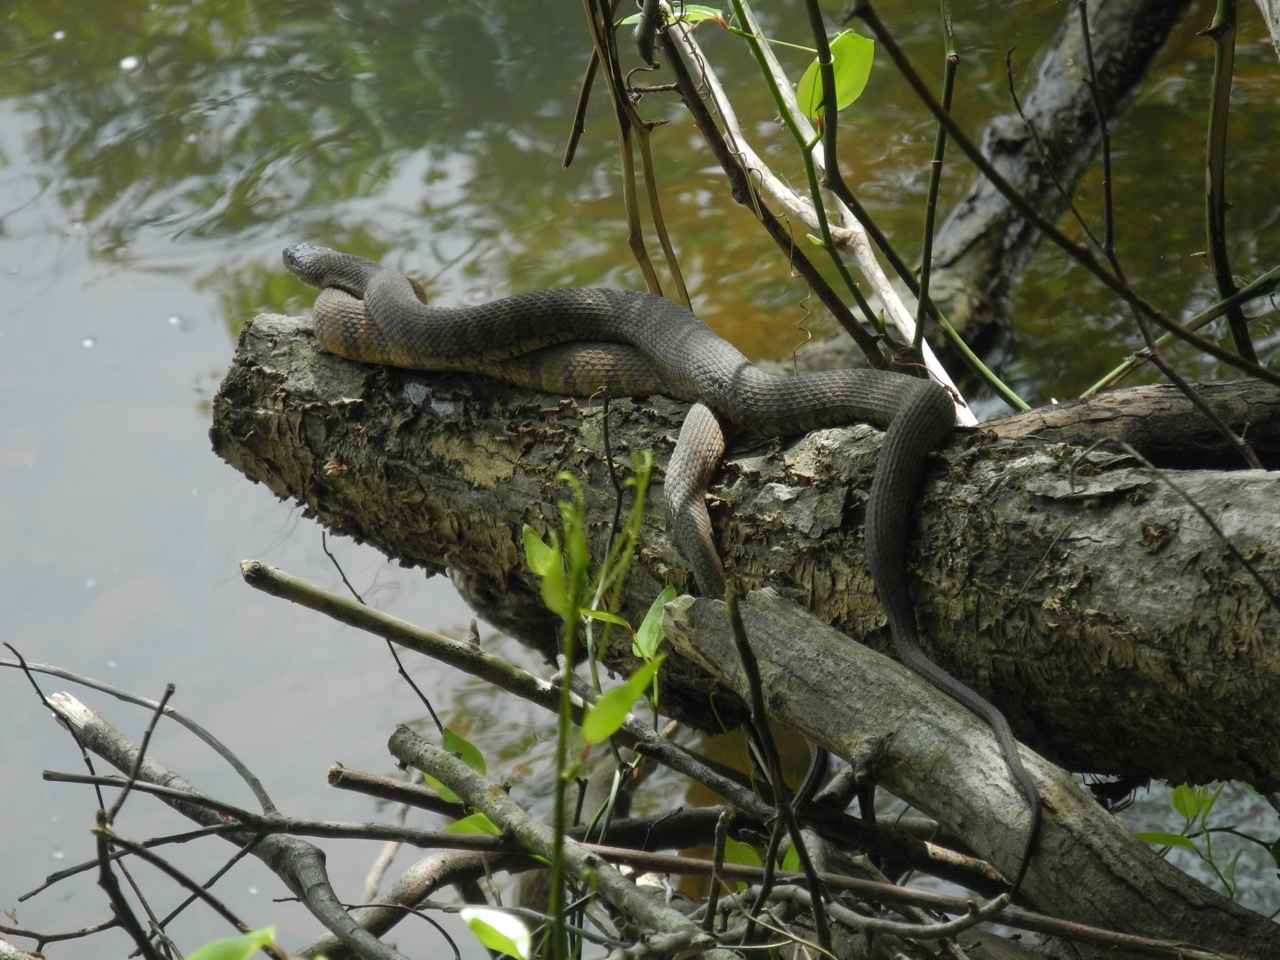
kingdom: Animalia
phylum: Chordata
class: Squamata
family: Colubridae
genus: Nerodia
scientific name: Nerodia sipedon
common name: Northern water snake
